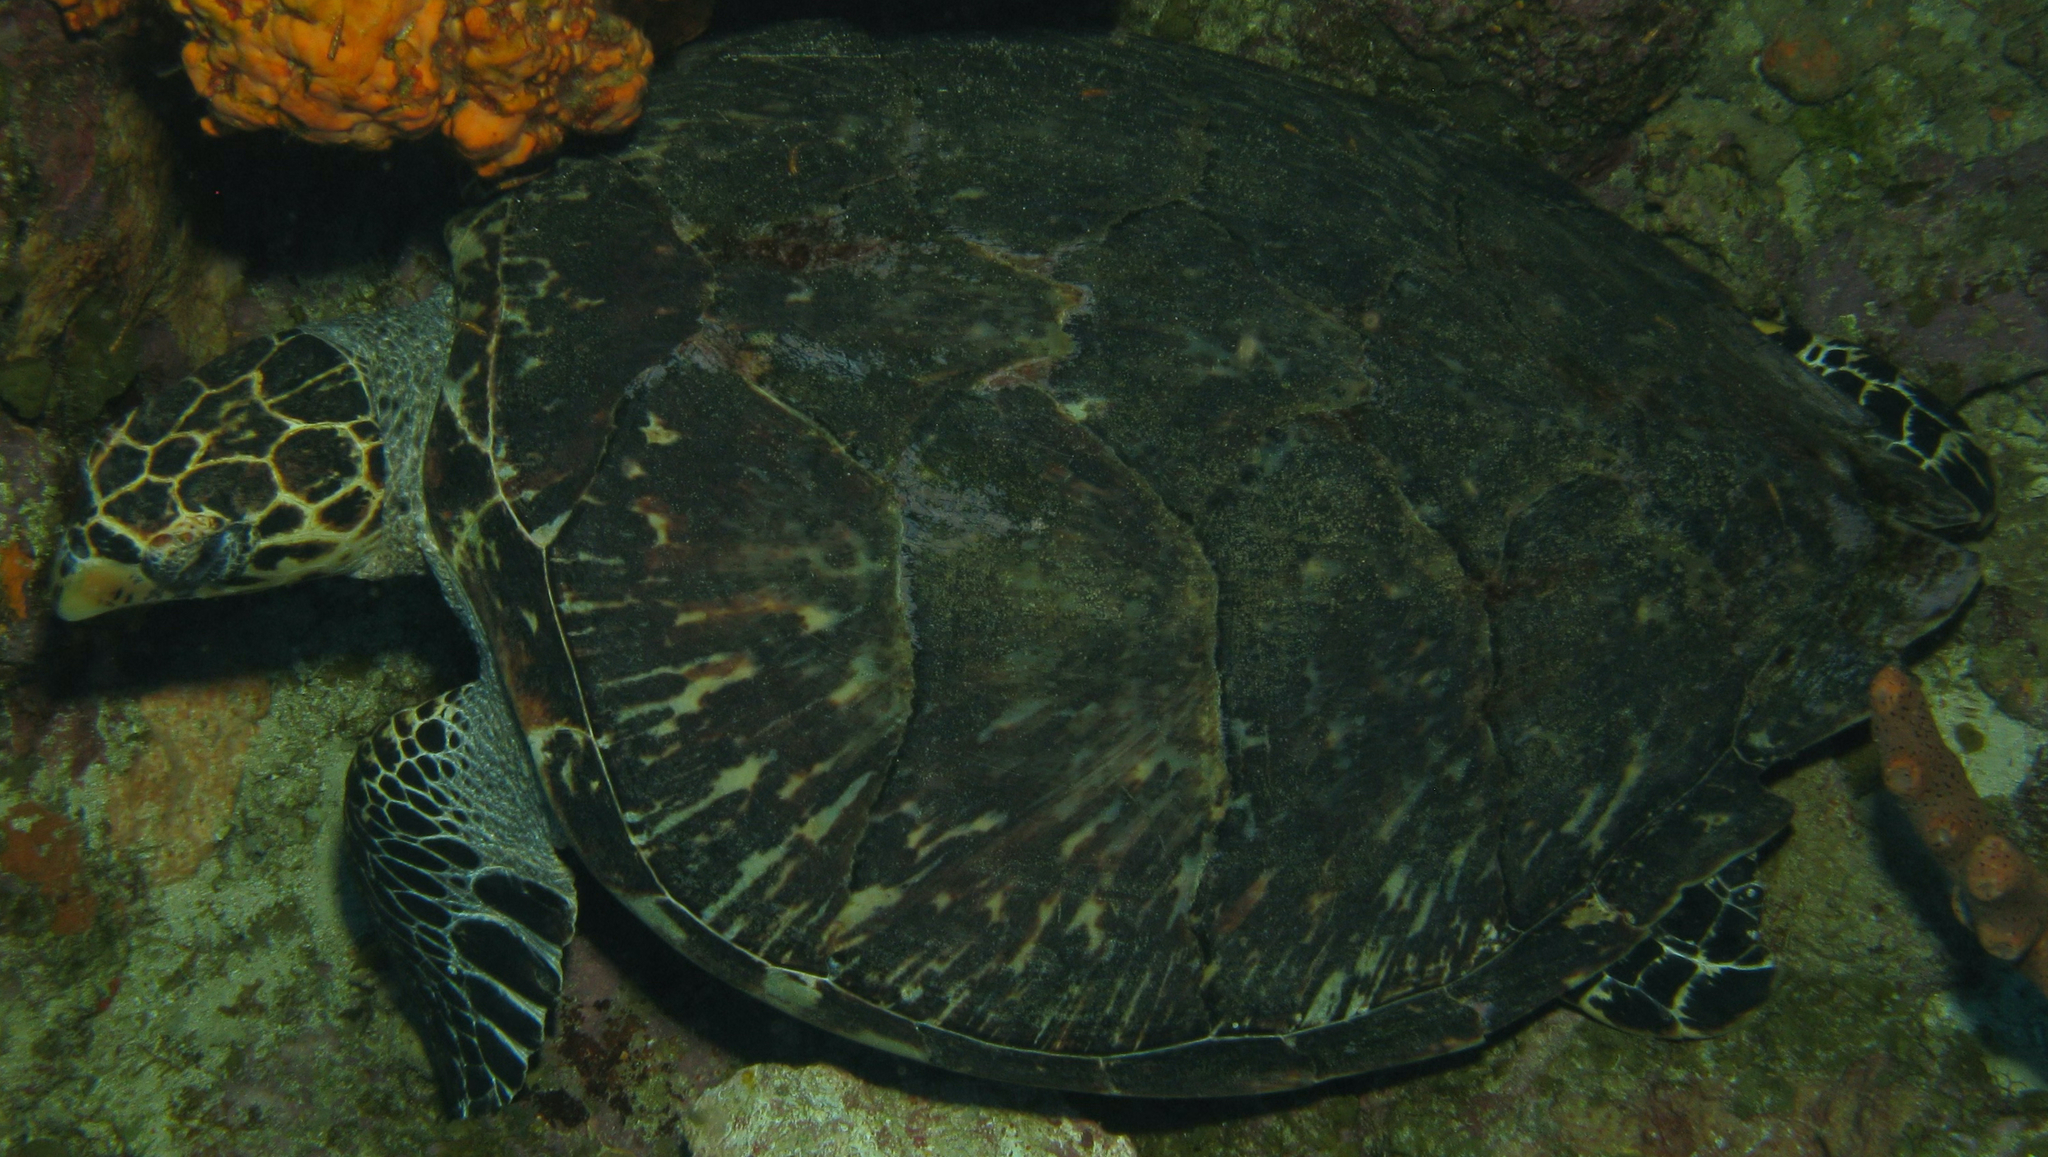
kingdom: Animalia
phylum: Chordata
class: Testudines
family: Cheloniidae
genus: Eretmochelys
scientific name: Eretmochelys imbricata
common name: Hawksbill turtle
